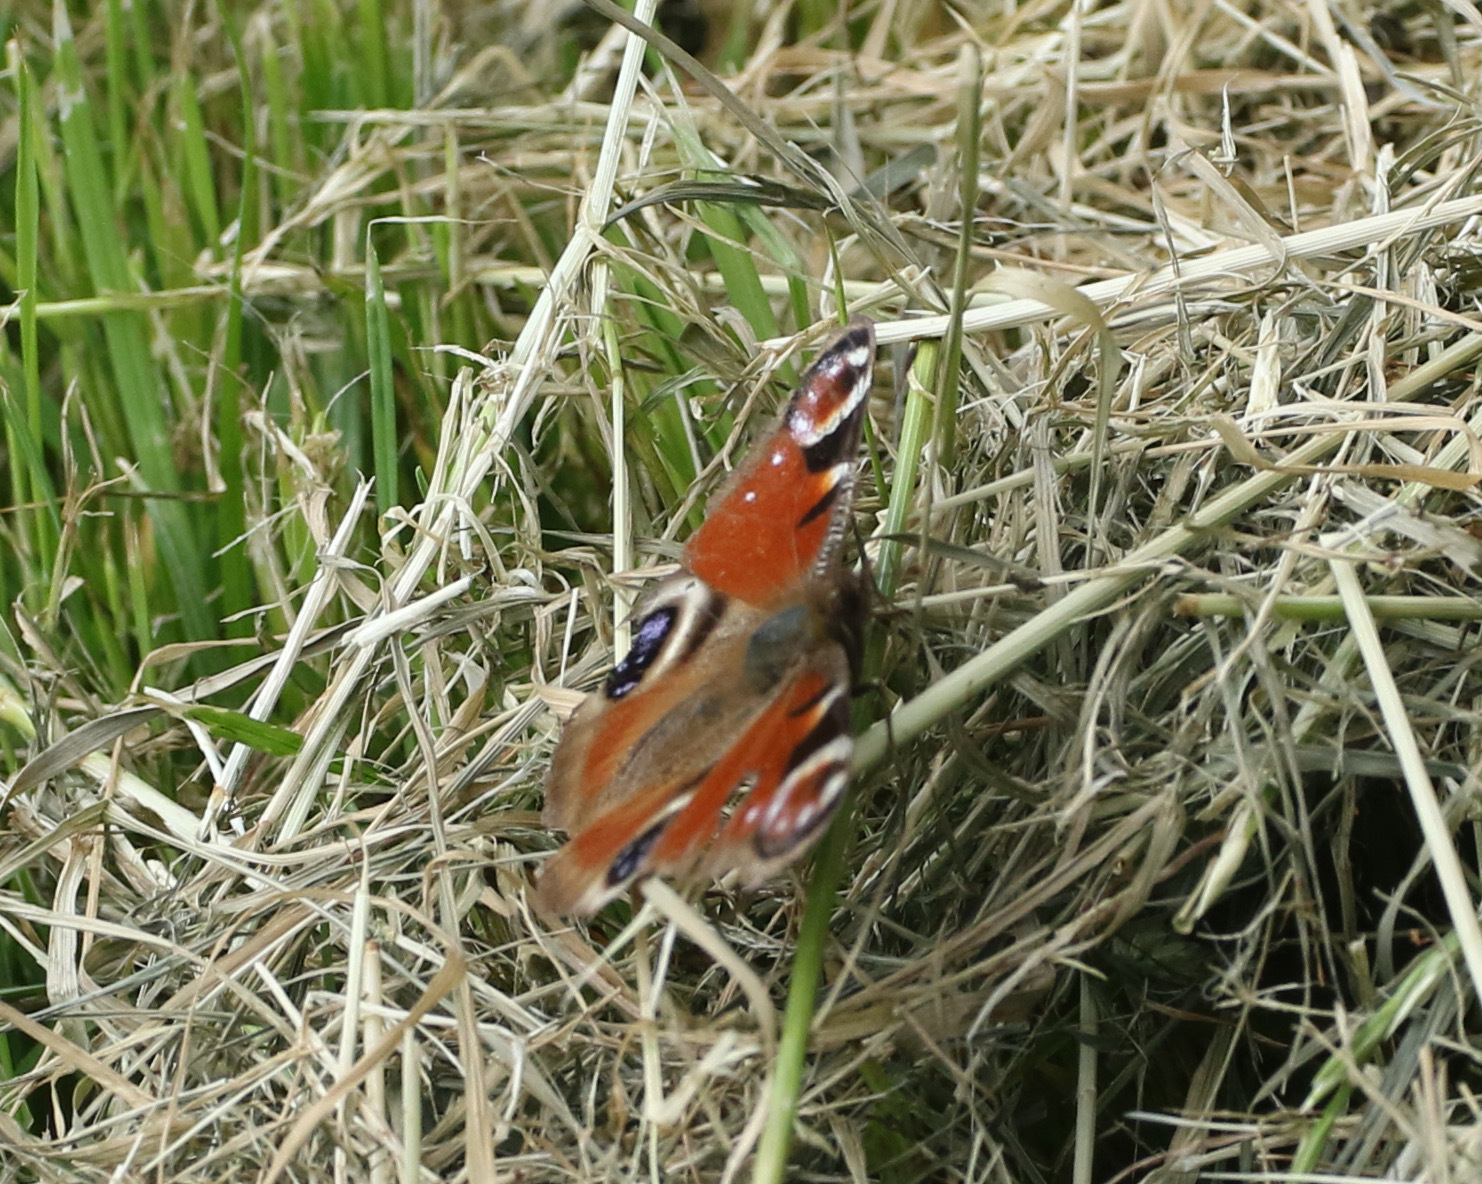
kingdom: Animalia
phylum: Arthropoda
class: Insecta
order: Lepidoptera
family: Nymphalidae
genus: Aglais
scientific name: Aglais io
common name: Peacock
